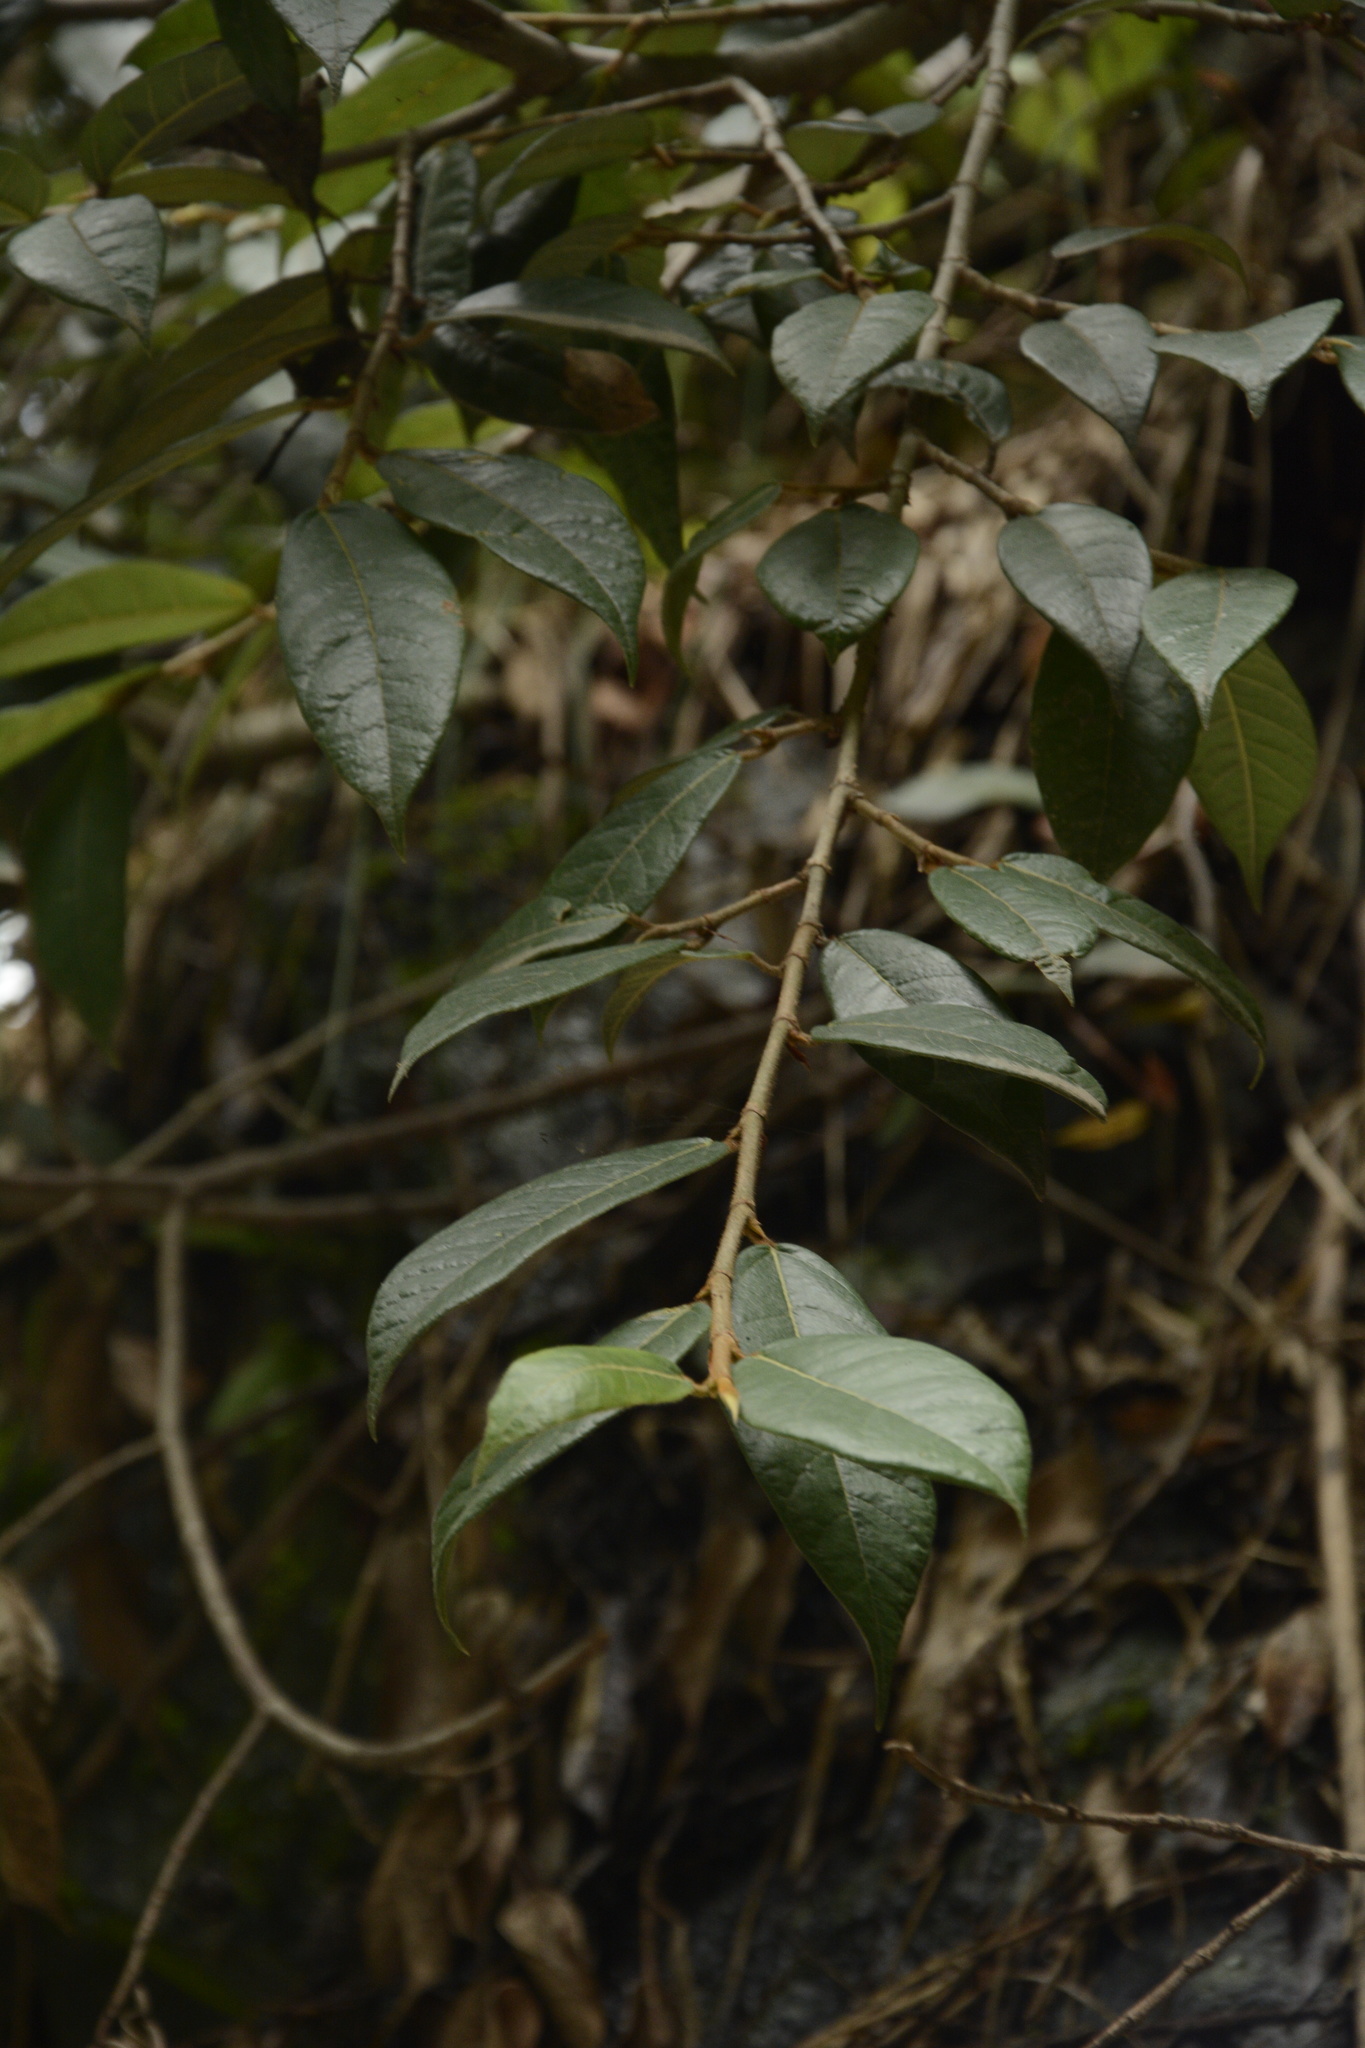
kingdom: Plantae
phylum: Tracheophyta
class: Magnoliopsida
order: Rosales
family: Moraceae
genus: Ficus
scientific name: Ficus hederacea
